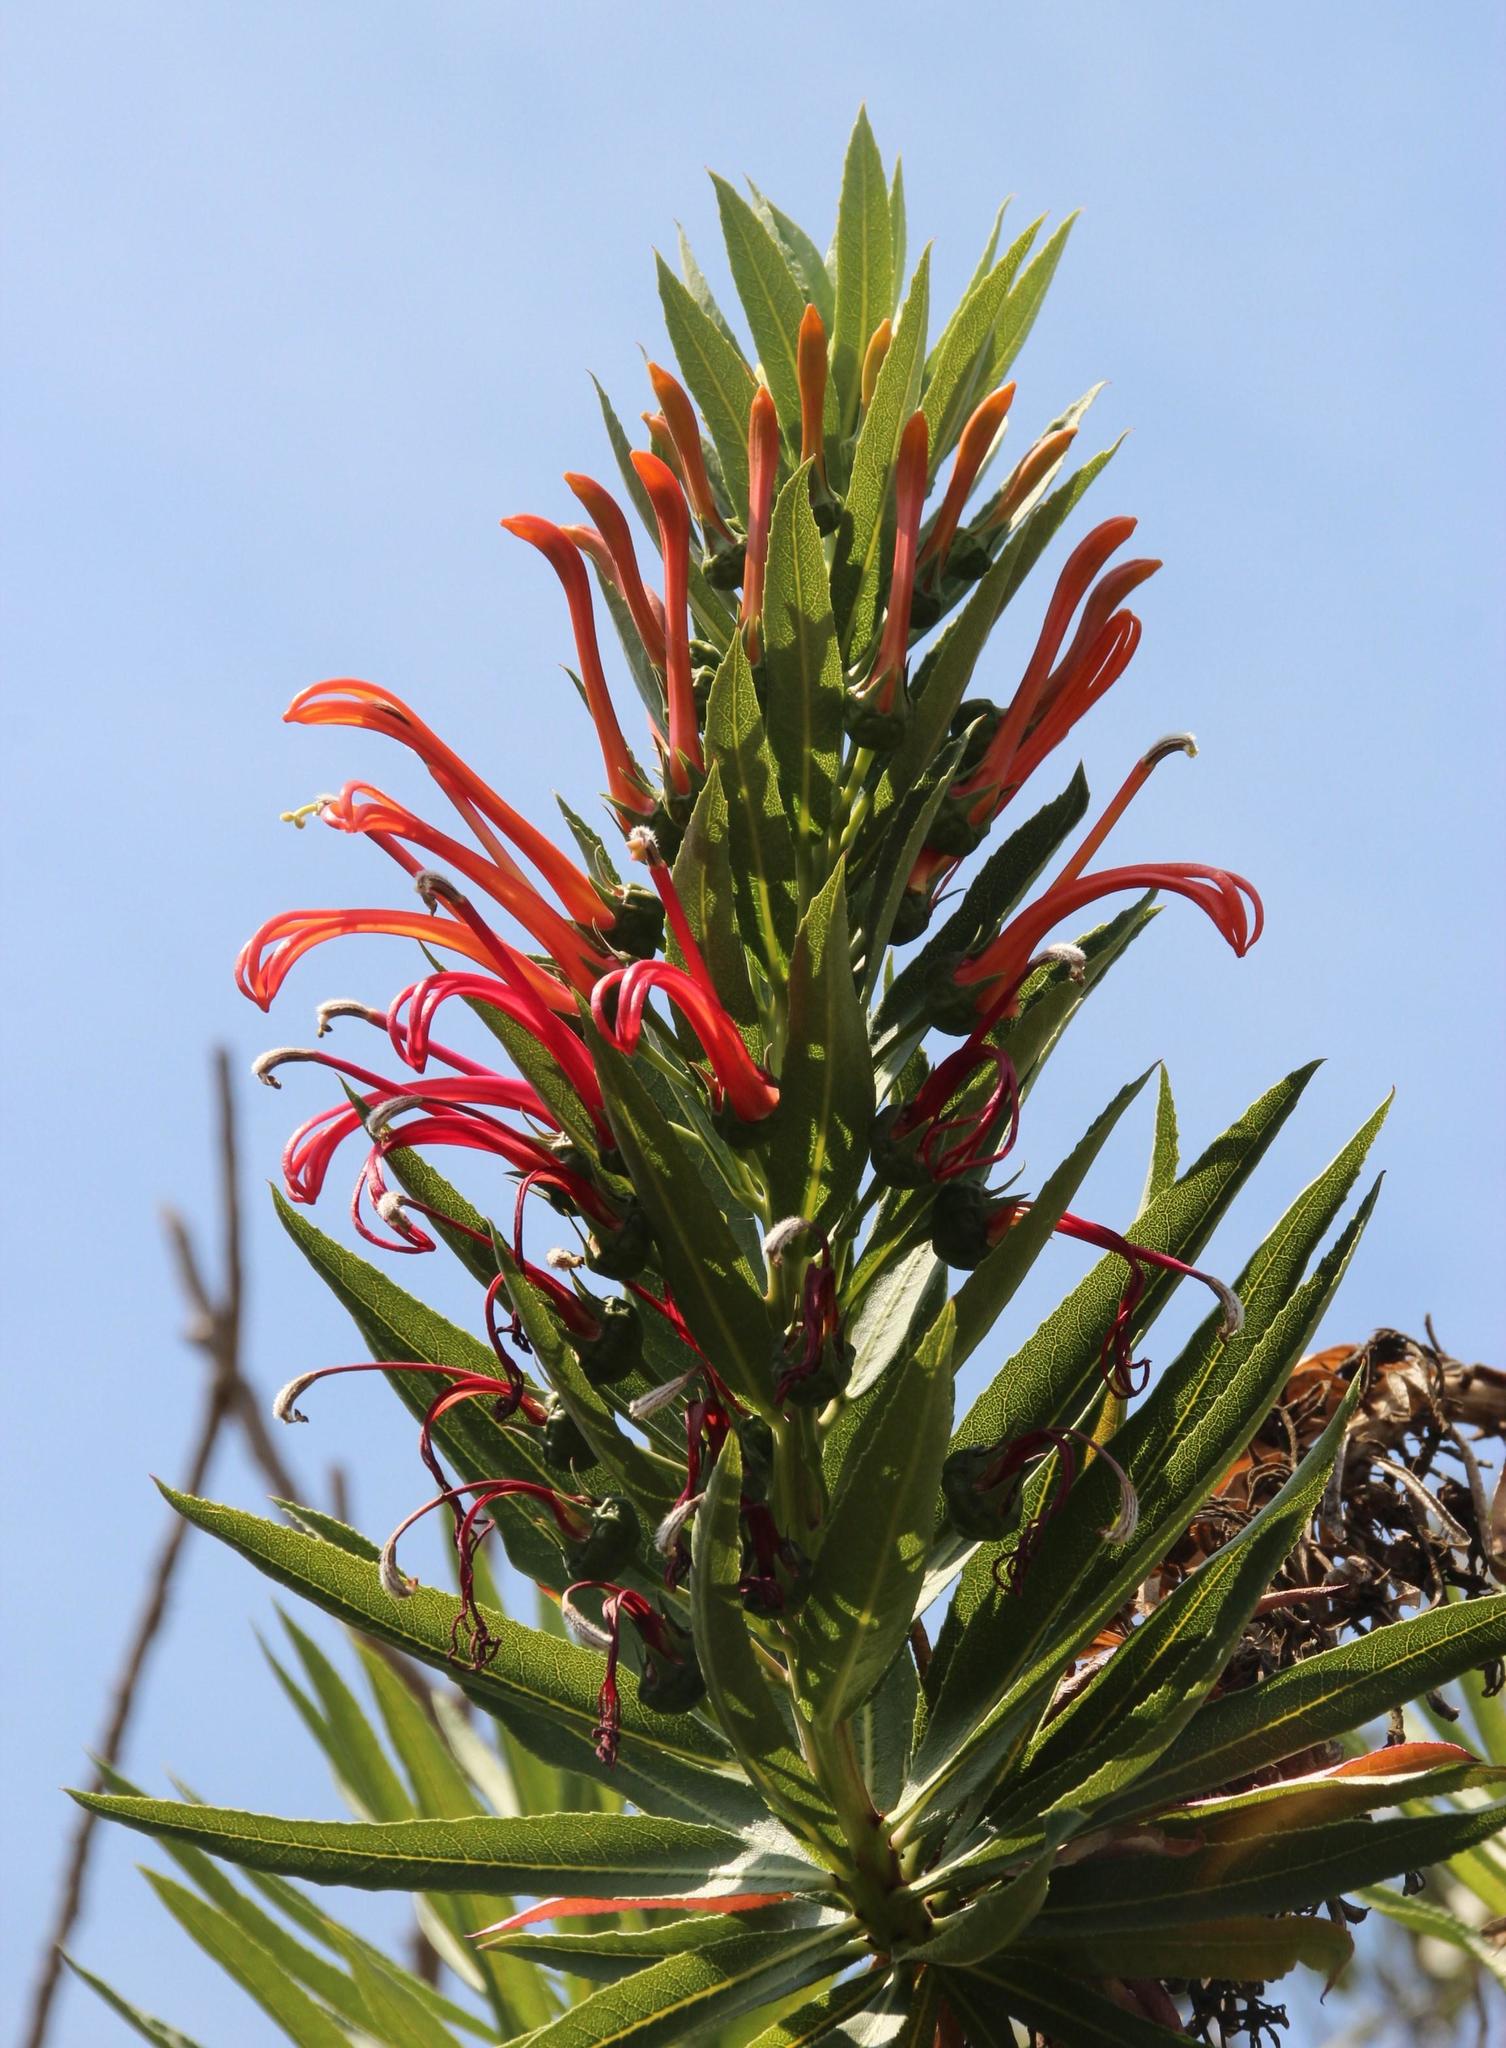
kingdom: Plantae
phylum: Tracheophyta
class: Magnoliopsida
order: Asterales
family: Campanulaceae
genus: Lobelia
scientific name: Lobelia excelsa
